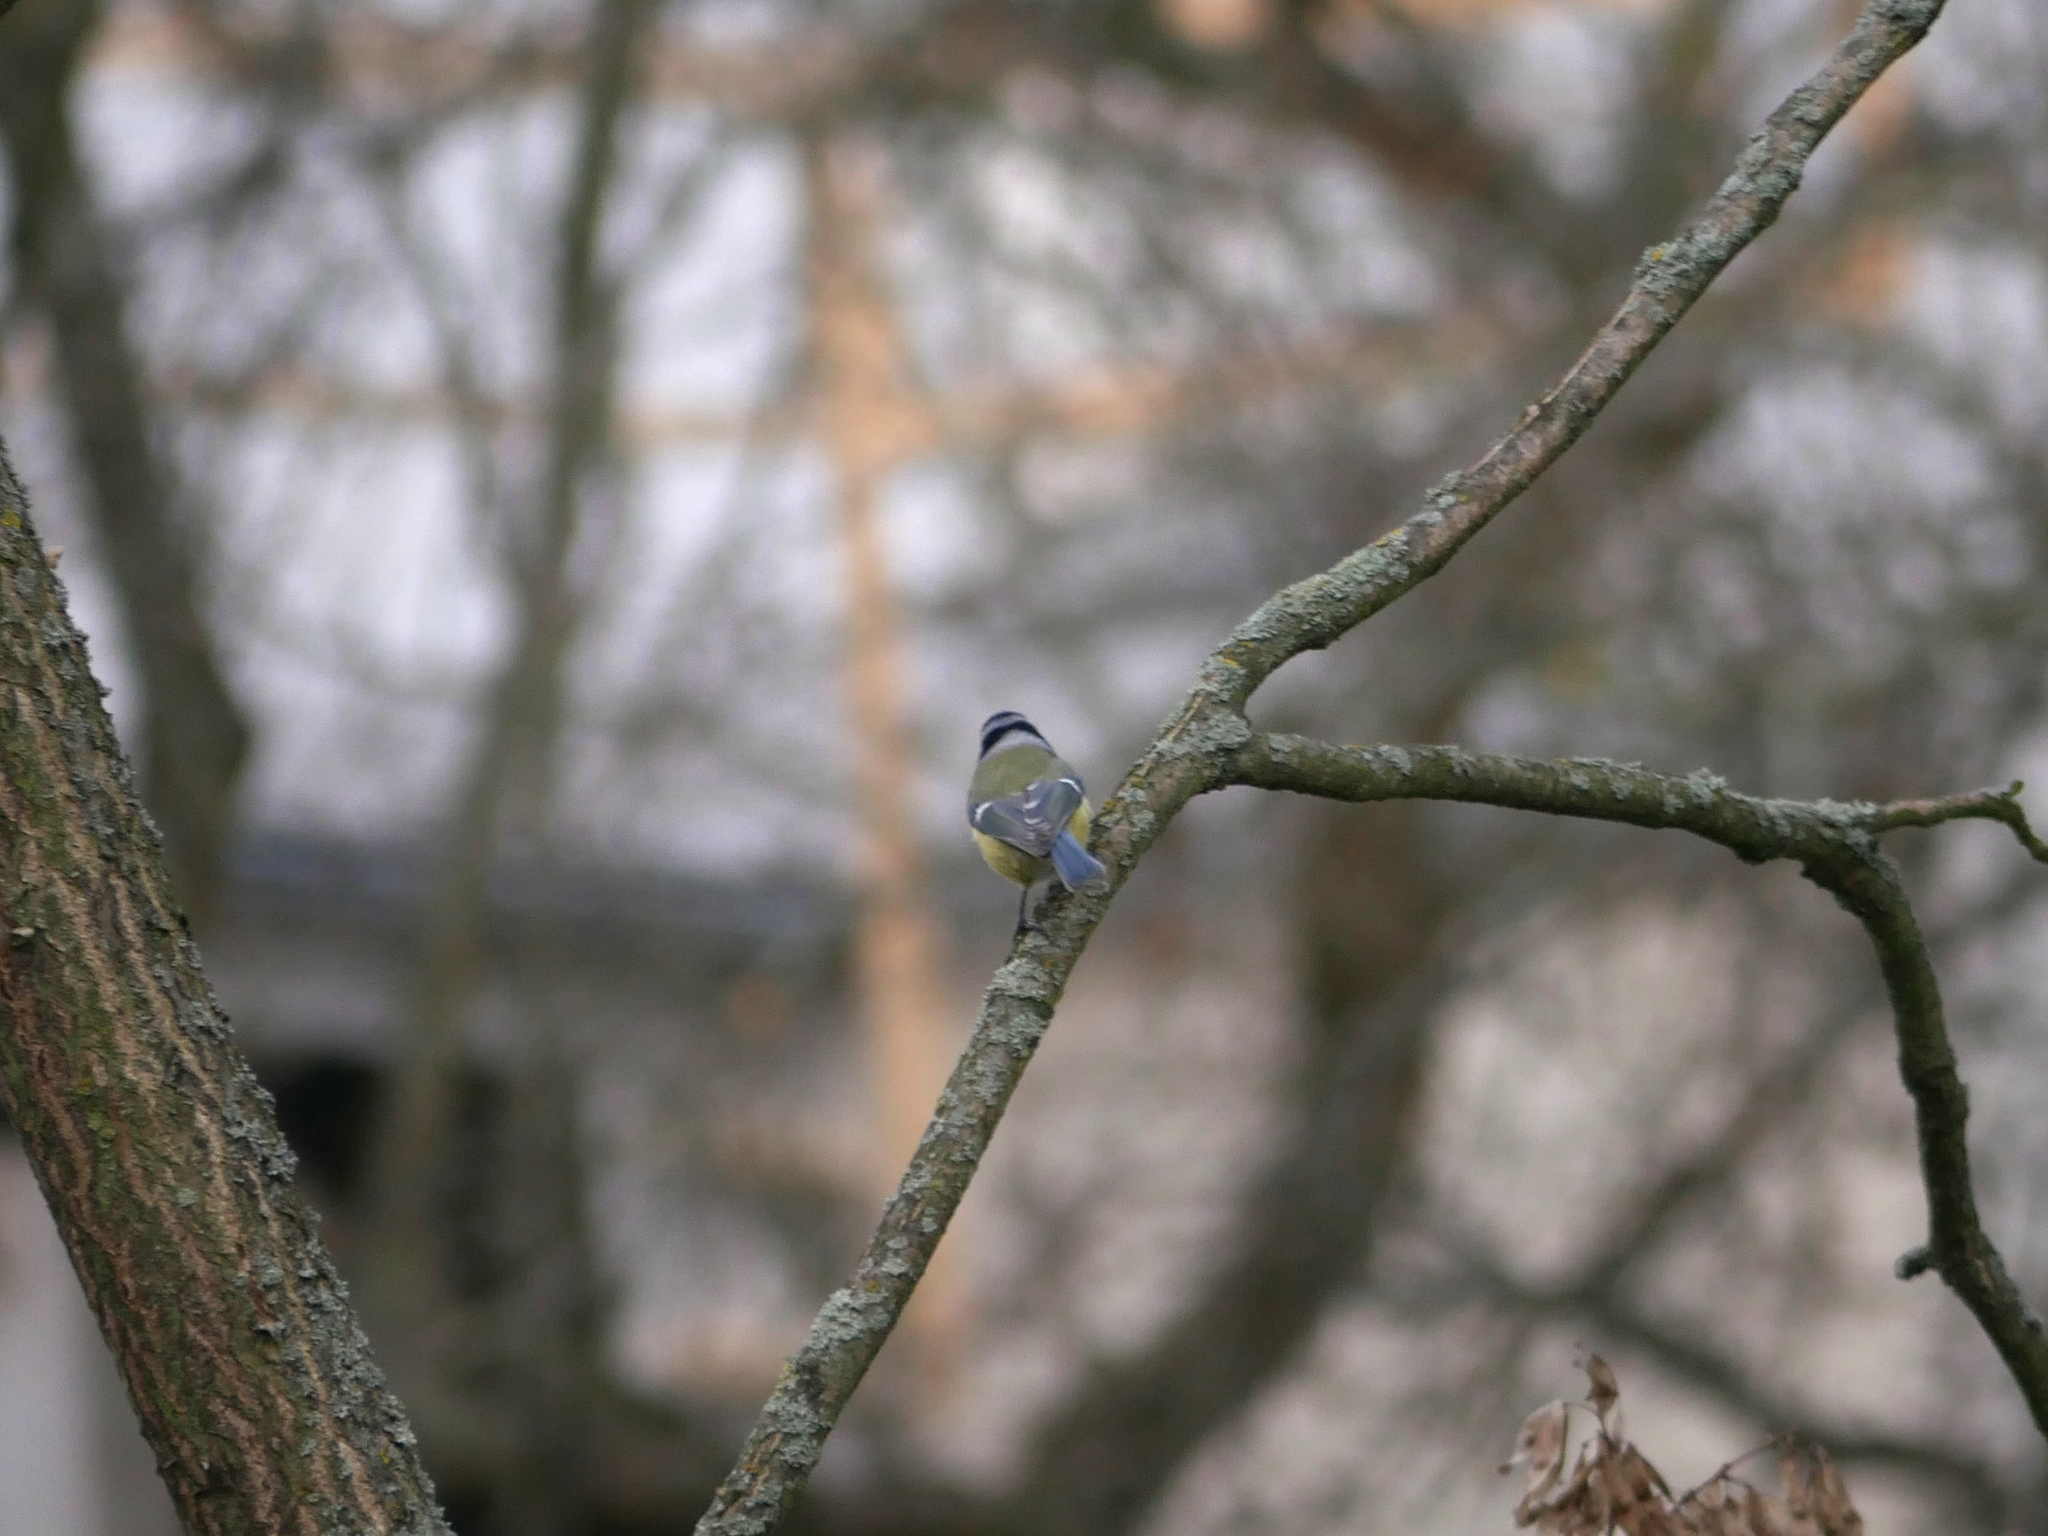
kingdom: Animalia
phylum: Chordata
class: Aves
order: Passeriformes
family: Paridae
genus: Cyanistes
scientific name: Cyanistes caeruleus
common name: Eurasian blue tit
